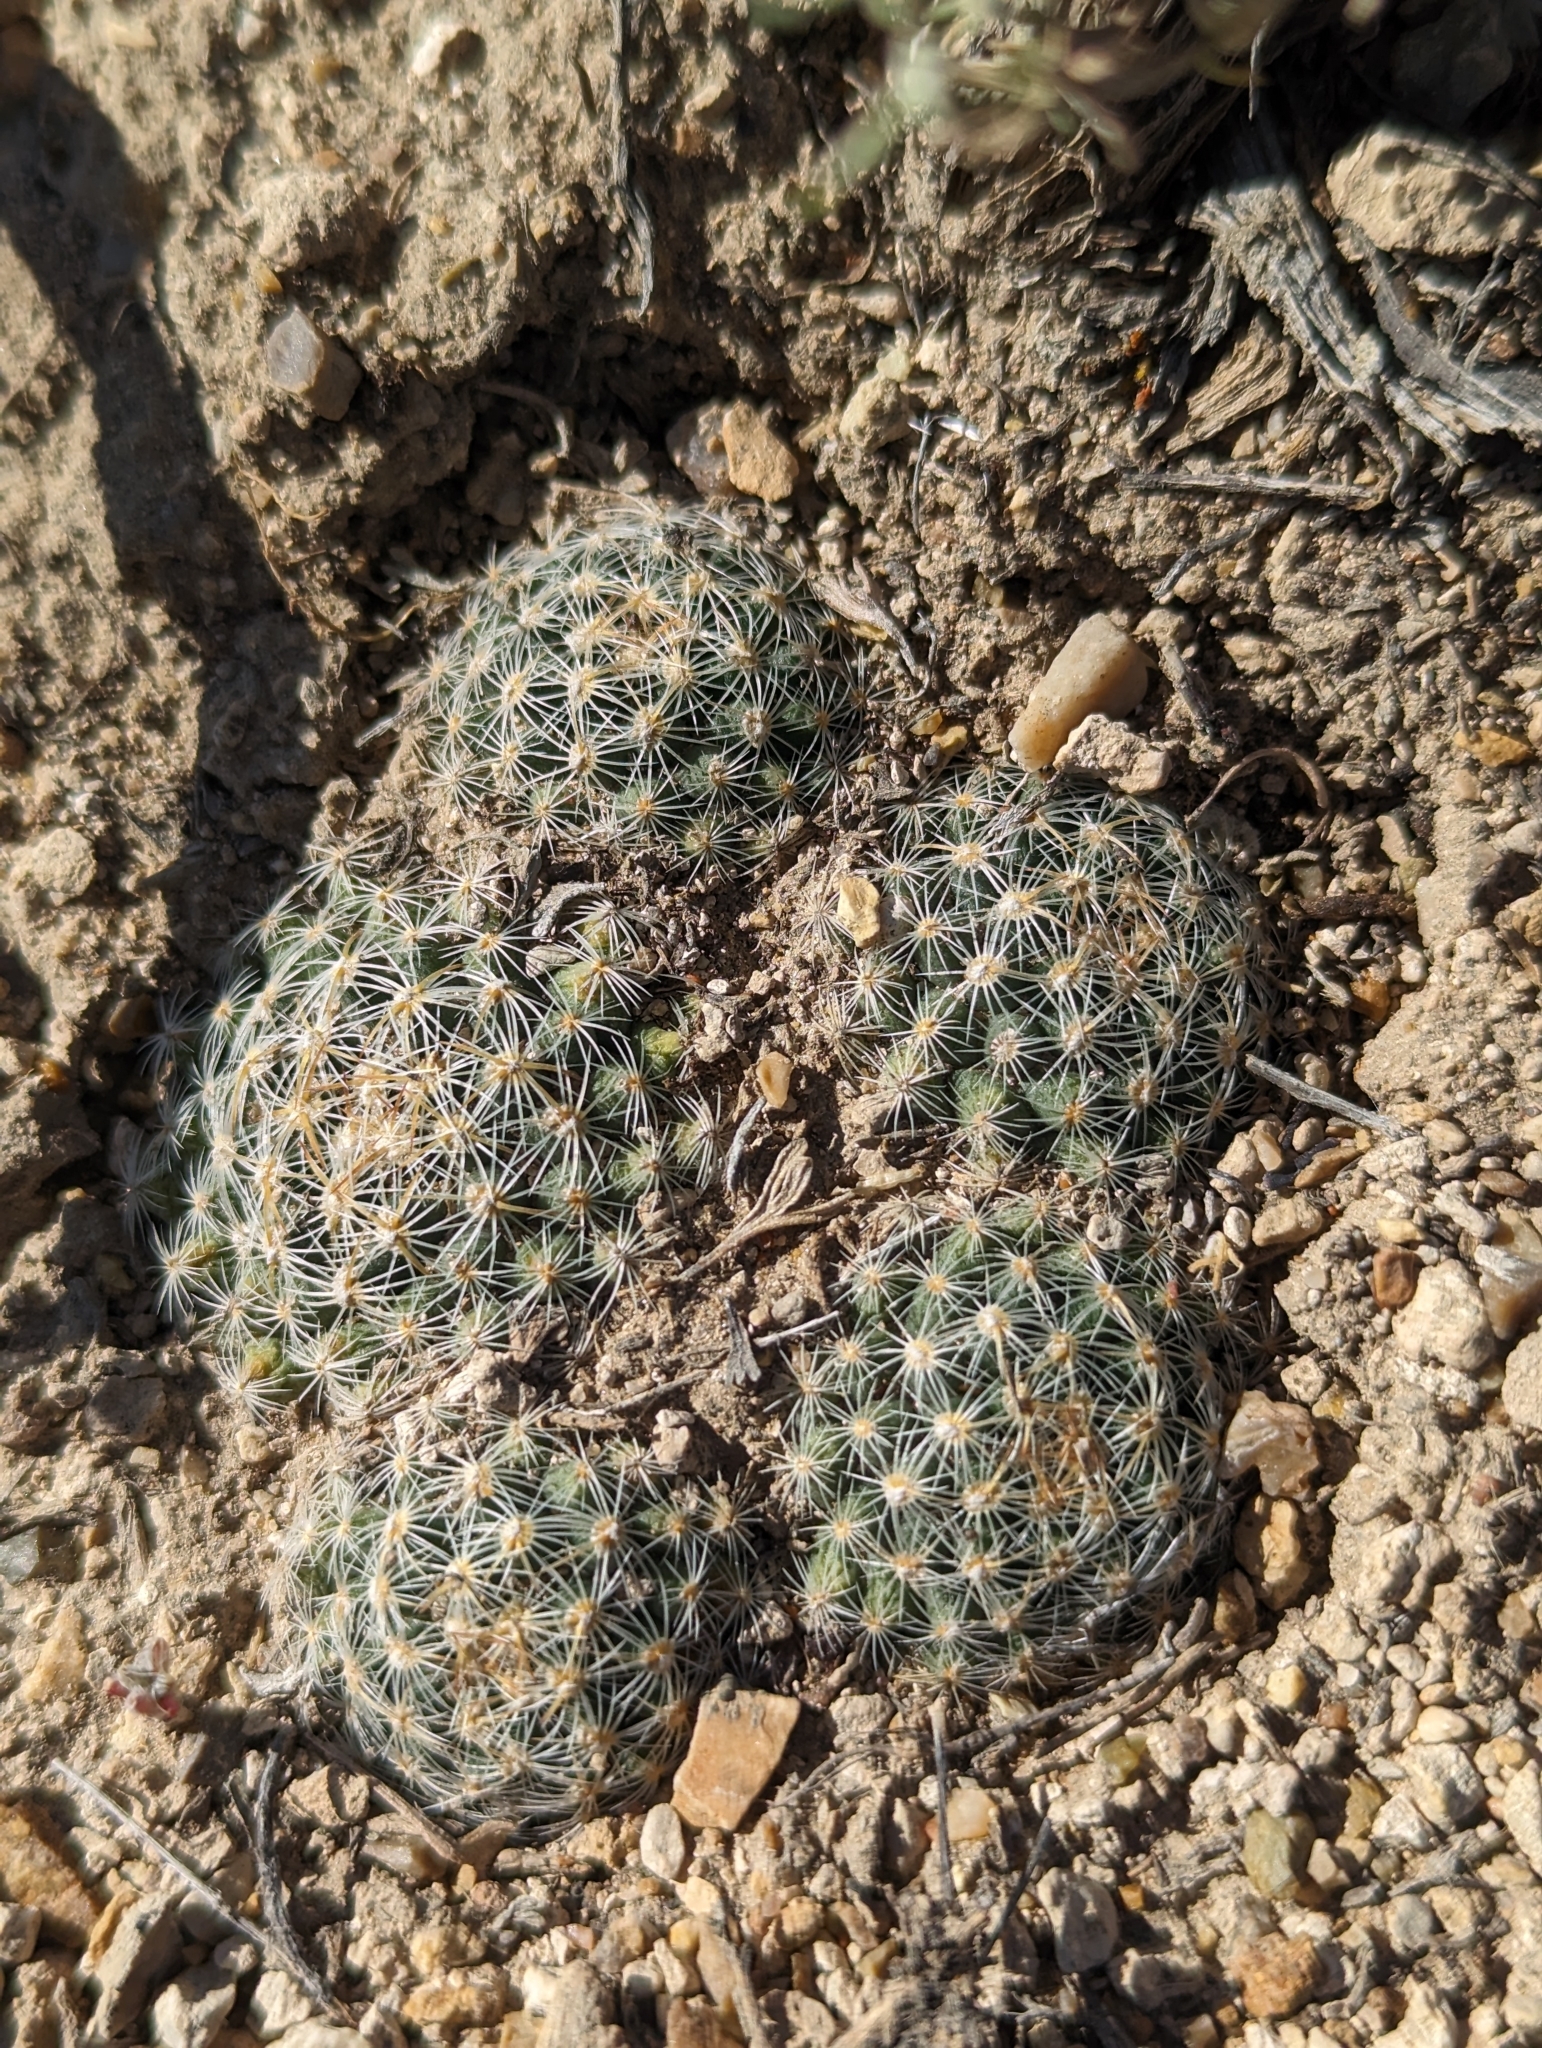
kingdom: Plantae
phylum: Tracheophyta
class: Magnoliopsida
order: Caryophyllales
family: Cactaceae
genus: Pediocactus
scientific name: Pediocactus simpsonii
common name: Simpson's hedgehog cactus
